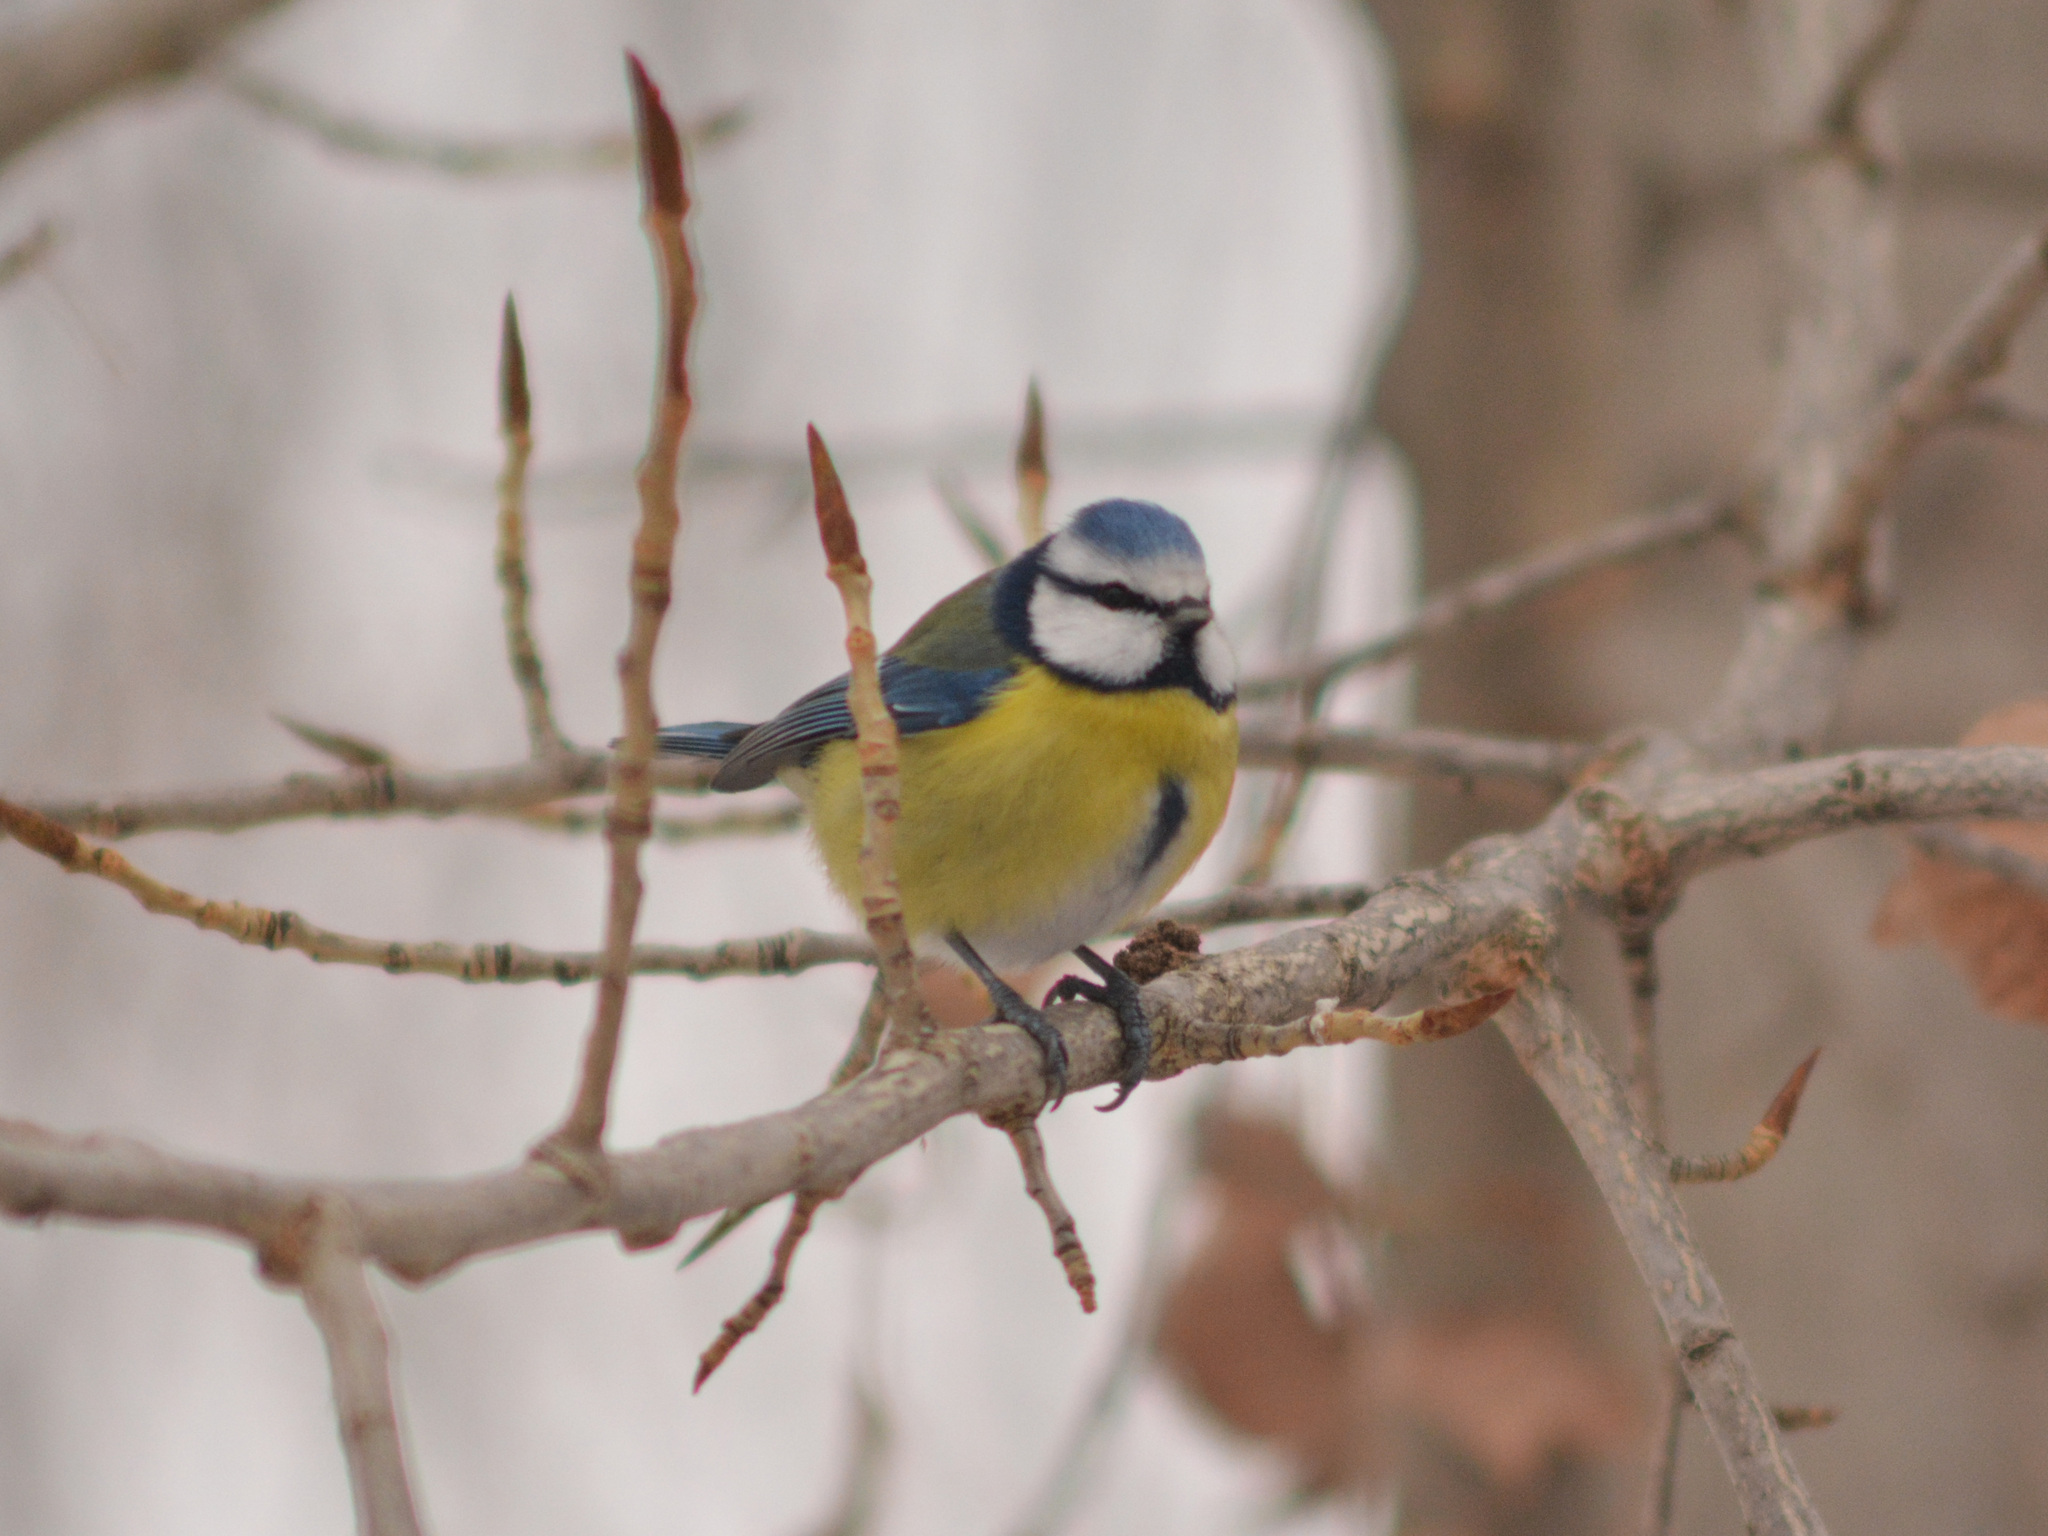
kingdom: Animalia
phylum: Chordata
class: Aves
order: Passeriformes
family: Paridae
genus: Cyanistes
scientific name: Cyanistes caeruleus
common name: Eurasian blue tit
